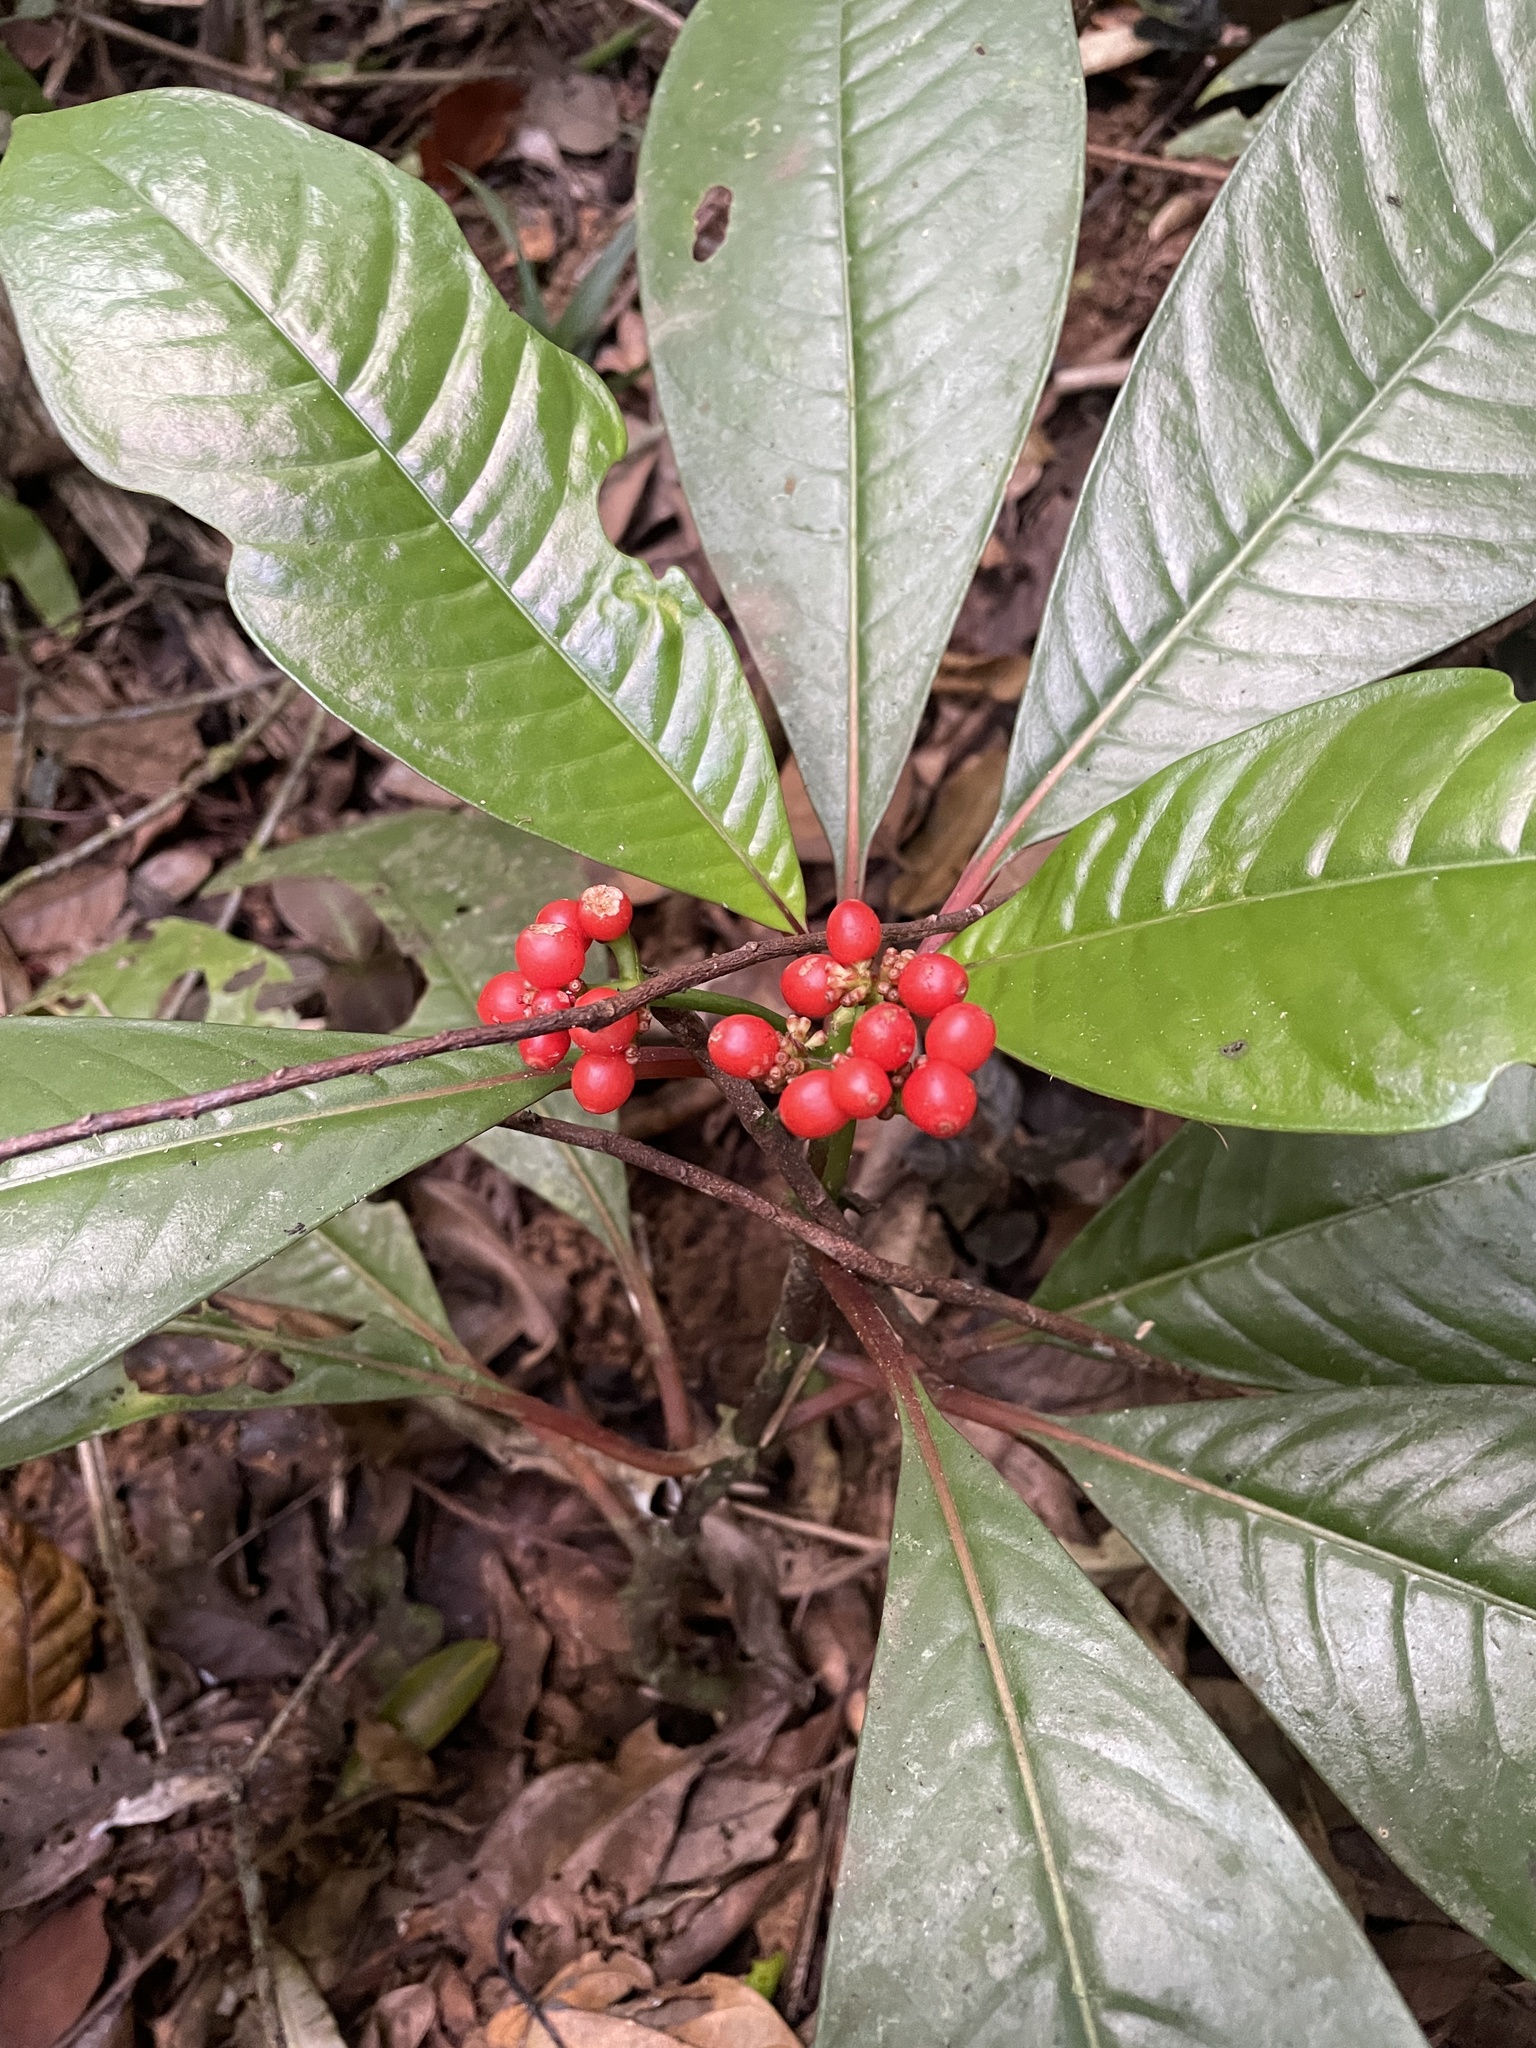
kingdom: Plantae
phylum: Tracheophyta
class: Magnoliopsida
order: Gentianales
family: Rubiaceae
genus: Notopleura
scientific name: Notopleura uliginosa
